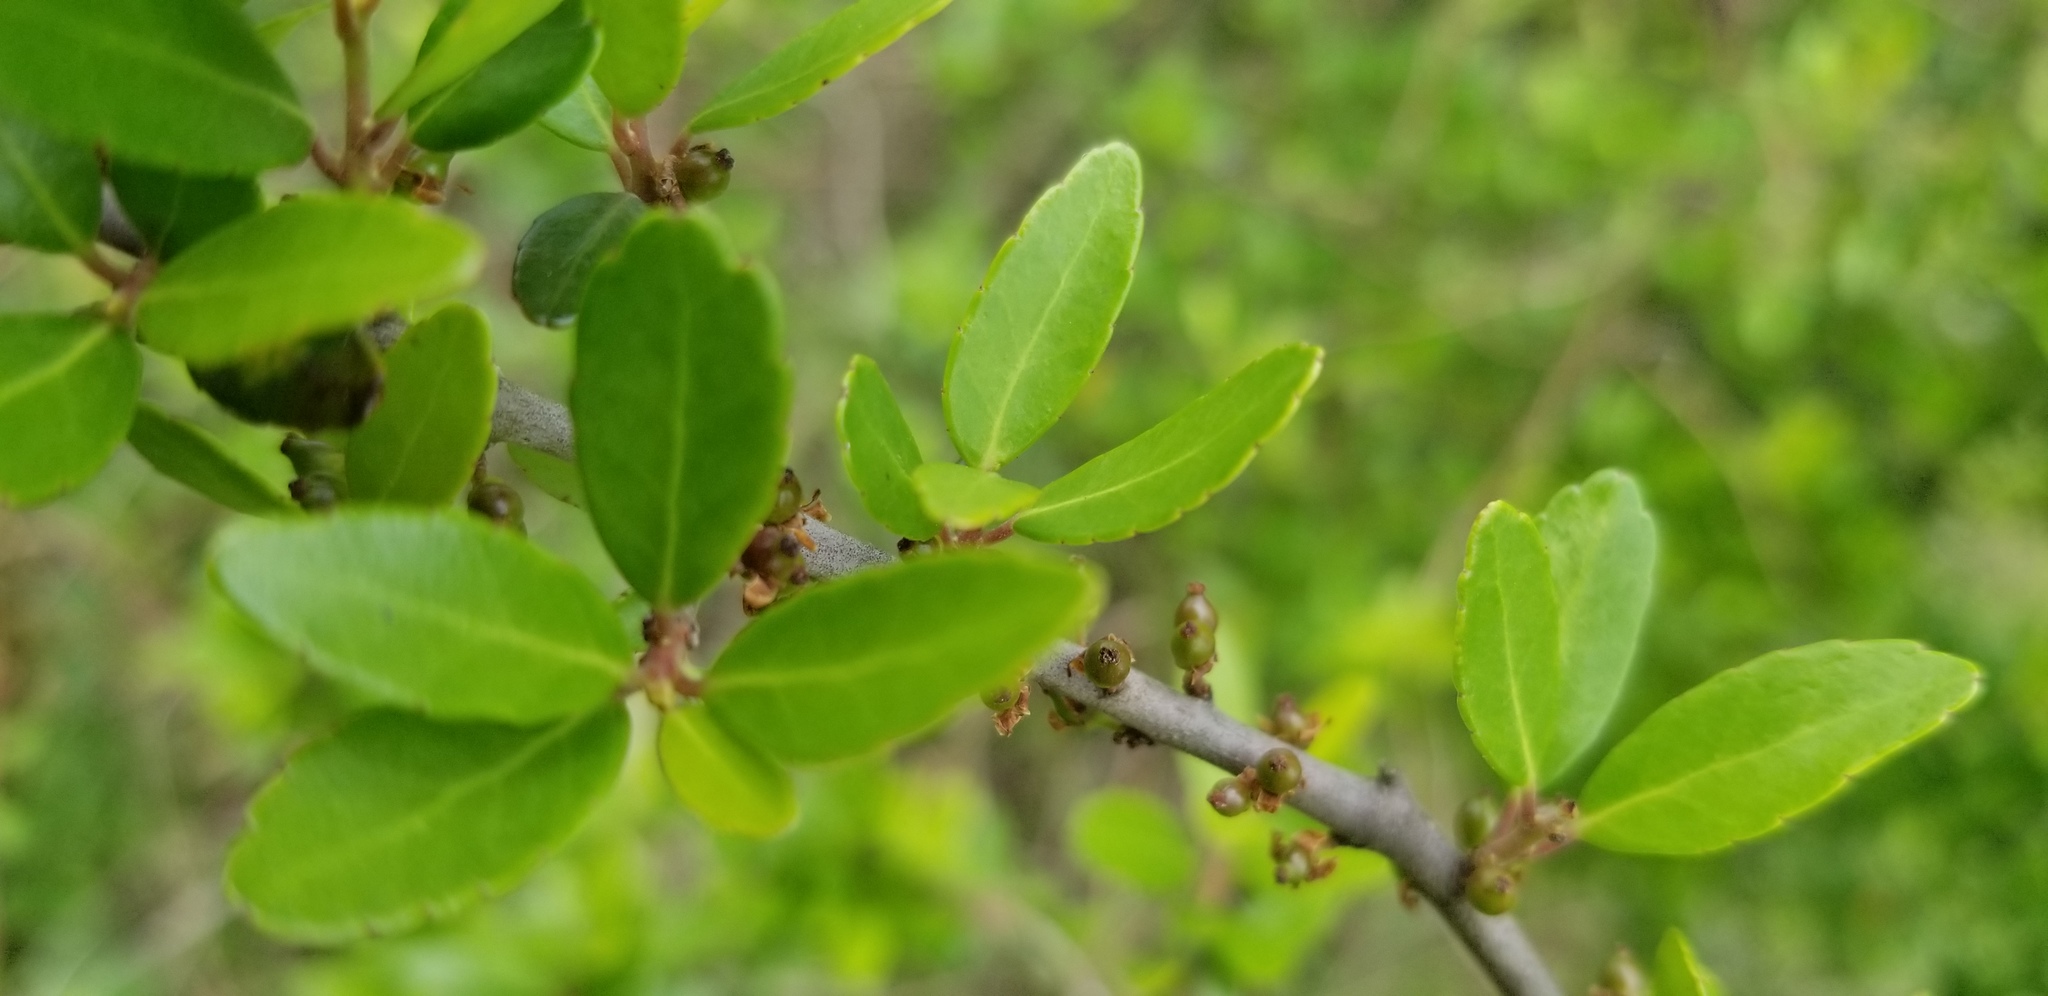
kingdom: Plantae
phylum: Tracheophyta
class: Magnoliopsida
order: Aquifoliales
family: Aquifoliaceae
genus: Ilex
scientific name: Ilex vomitoria
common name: Yaupon holly
